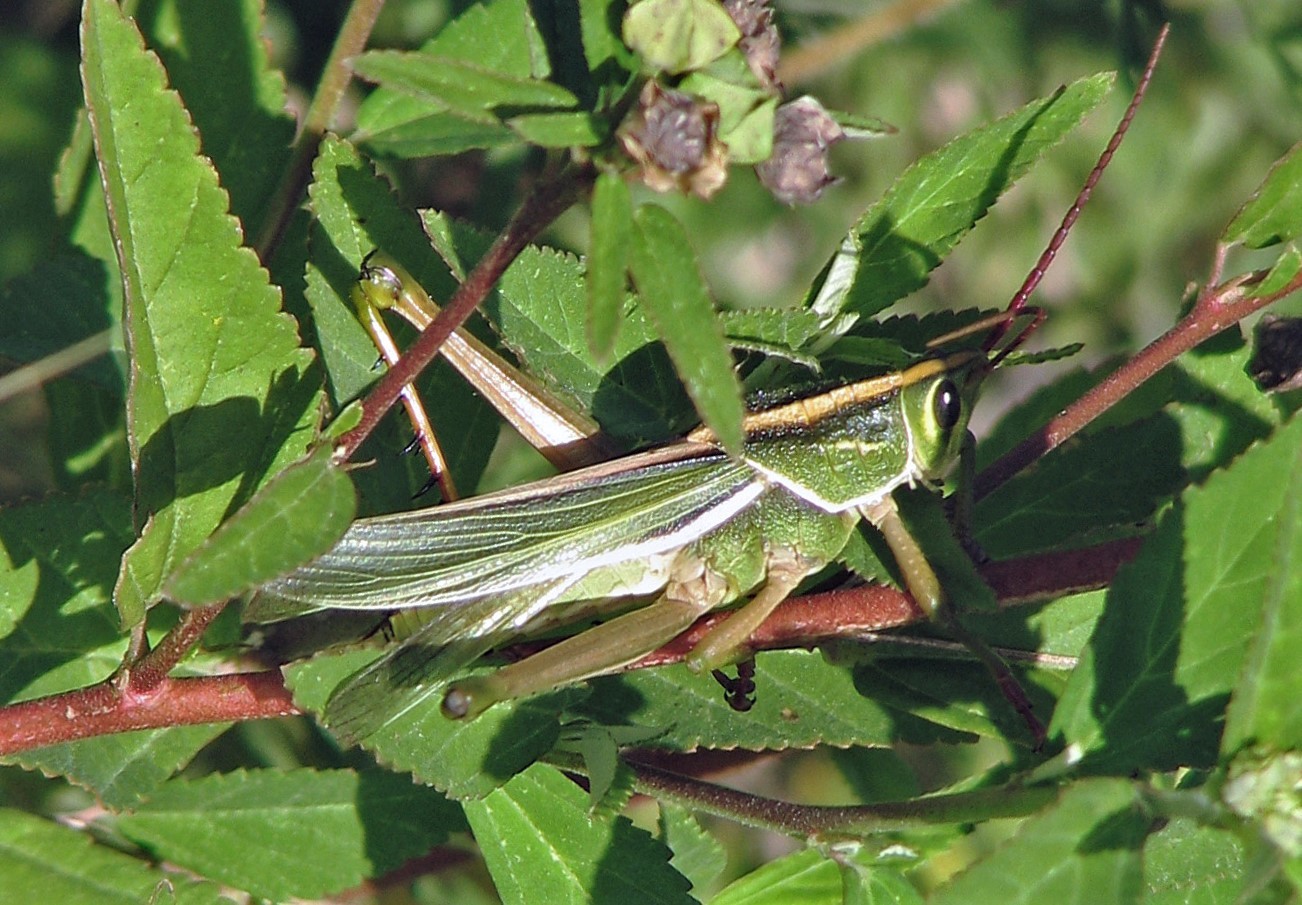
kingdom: Animalia
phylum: Arthropoda
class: Insecta
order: Orthoptera
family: Romaleidae
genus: Staleochlora
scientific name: Staleochlora viridicata
